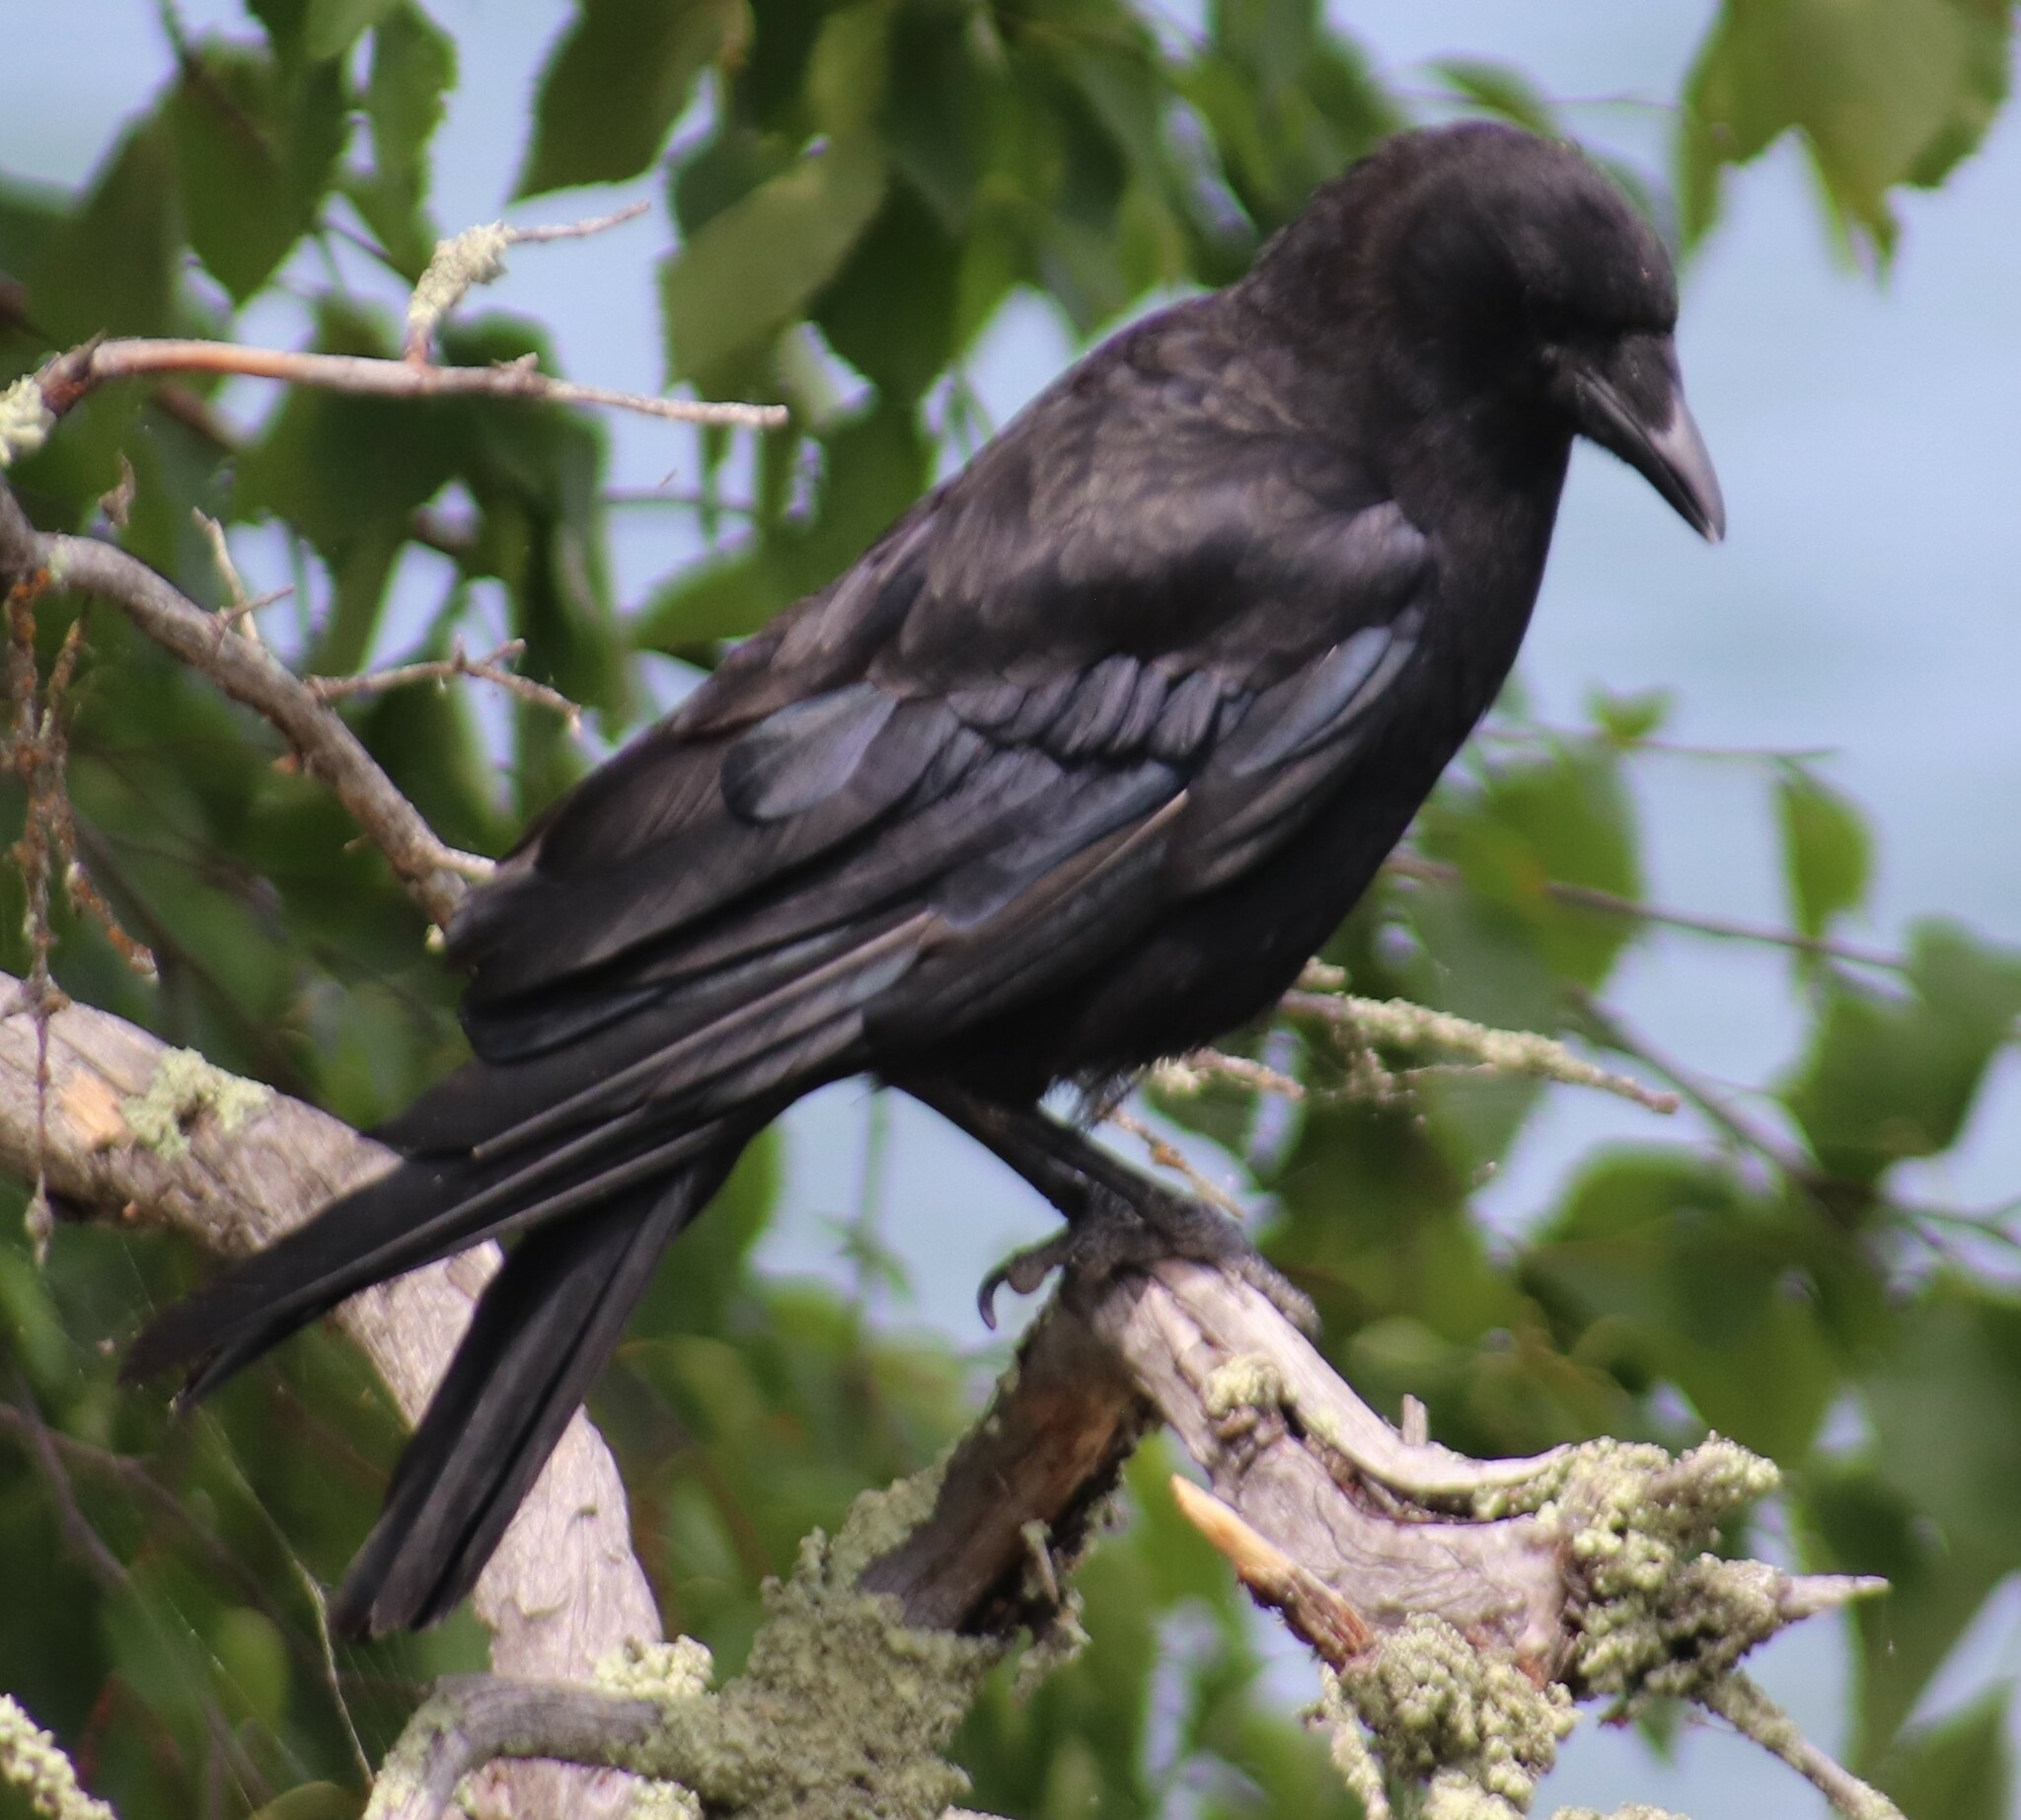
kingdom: Animalia
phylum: Chordata
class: Aves
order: Passeriformes
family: Corvidae
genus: Corvus
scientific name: Corvus brachyrhynchos
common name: American crow
